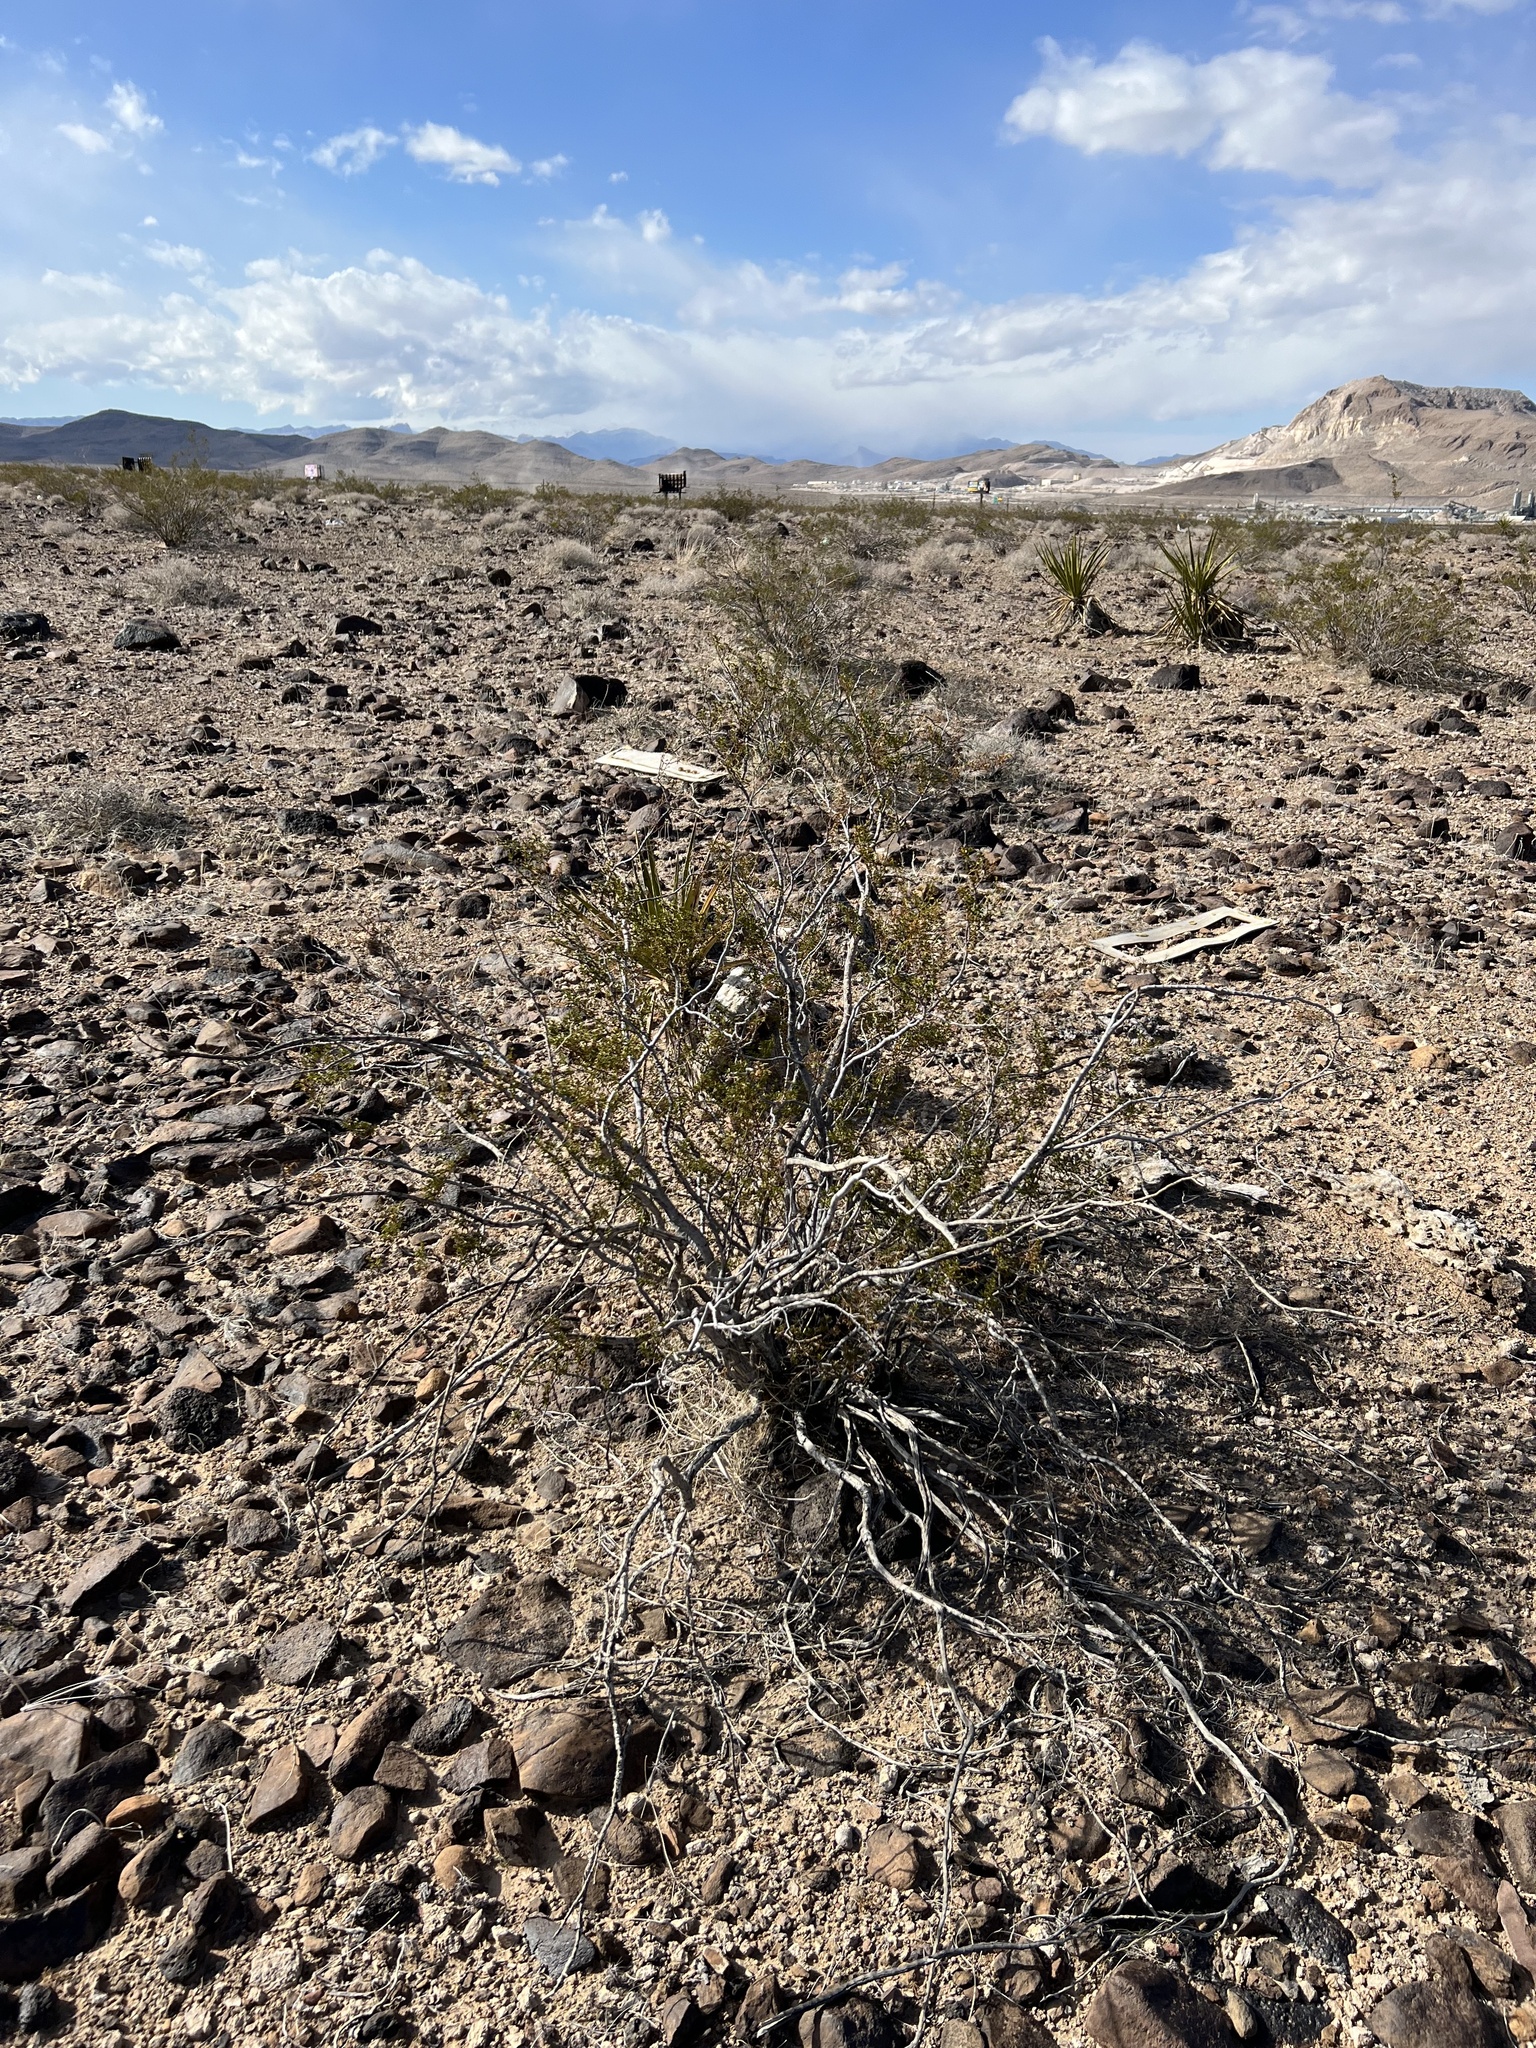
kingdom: Plantae
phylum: Tracheophyta
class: Magnoliopsida
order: Zygophyllales
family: Zygophyllaceae
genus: Larrea
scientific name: Larrea tridentata
